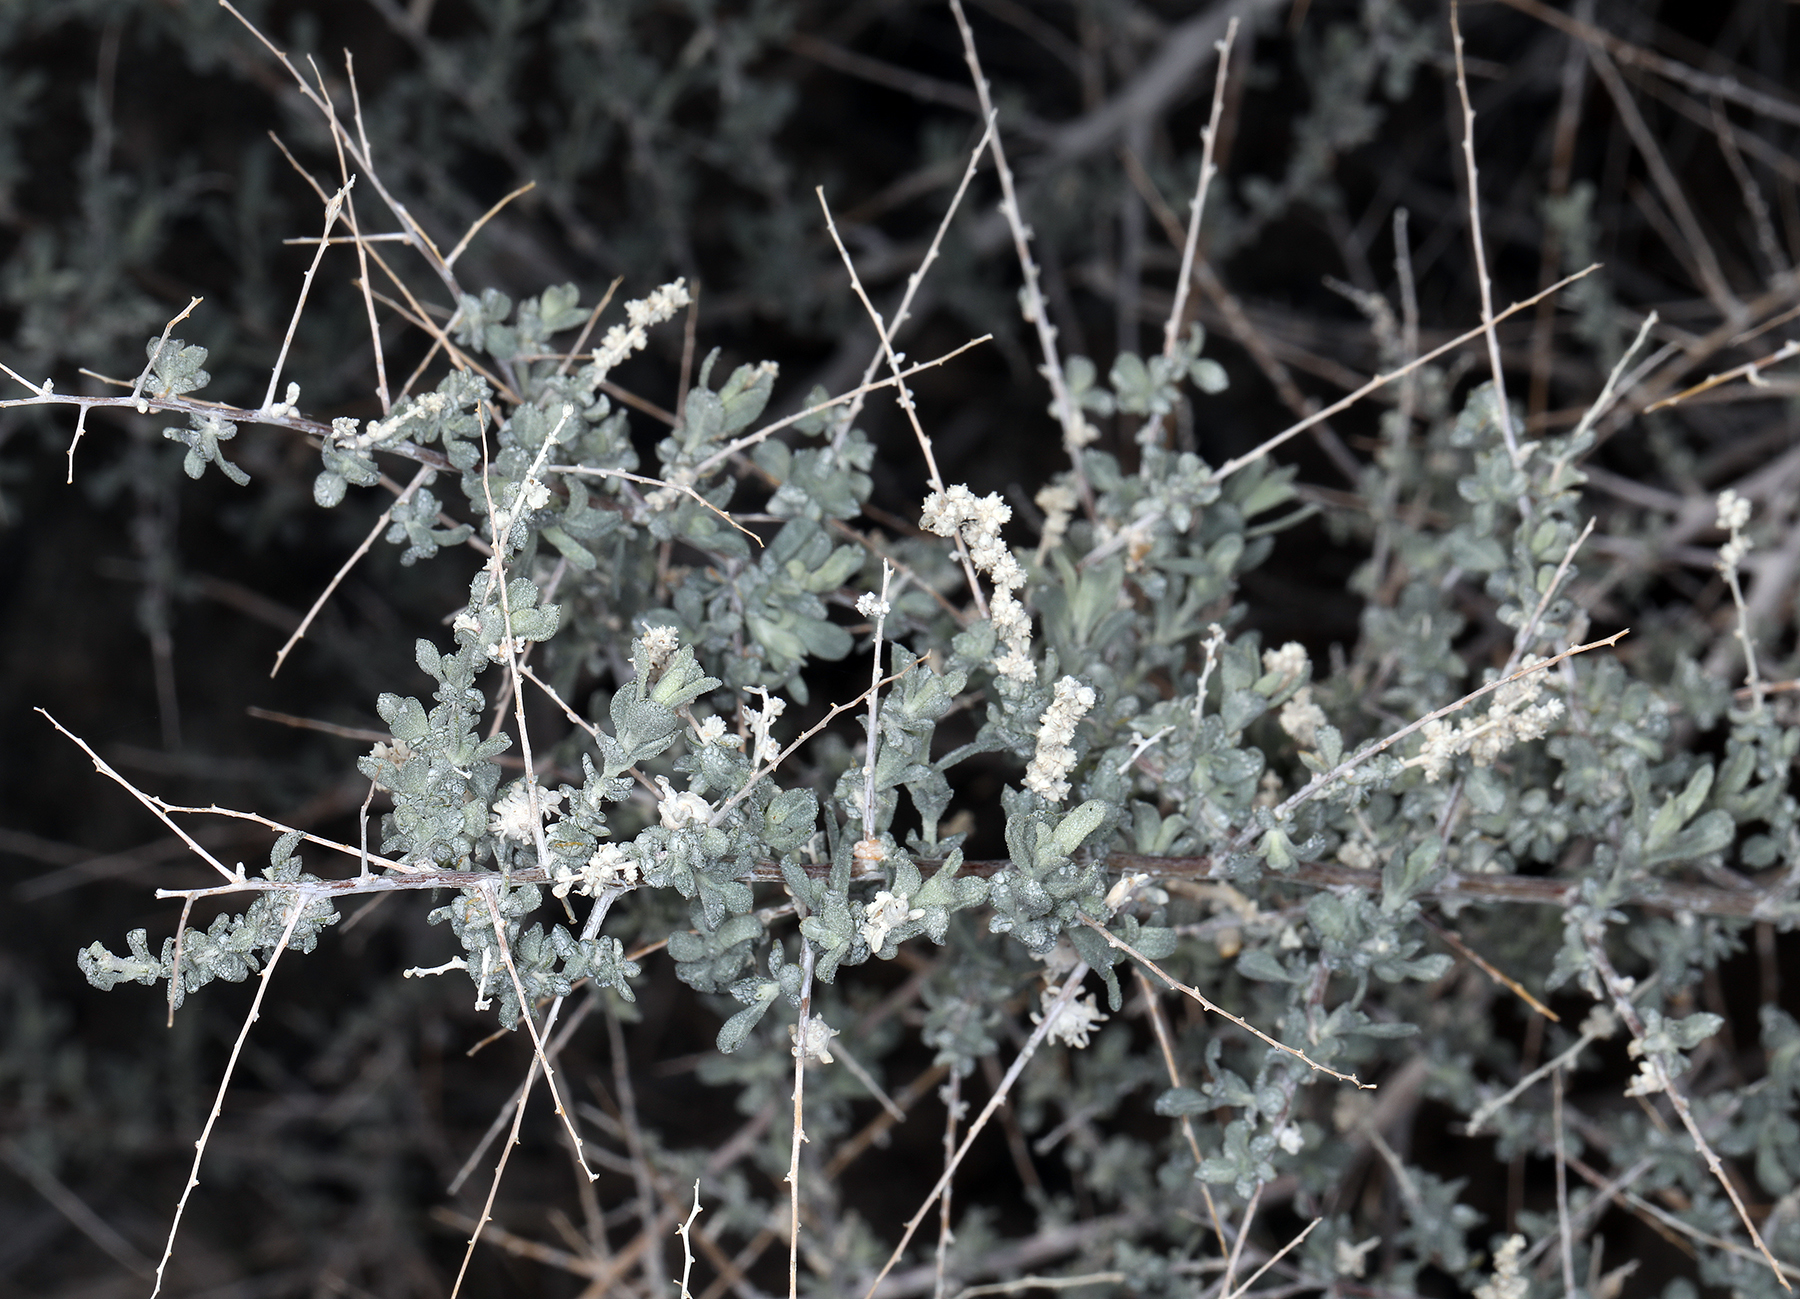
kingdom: Plantae
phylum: Tracheophyta
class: Magnoliopsida
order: Caryophyllales
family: Amaranthaceae
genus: Atriplex
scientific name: Atriplex polycarpa
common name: Desert saltbush
